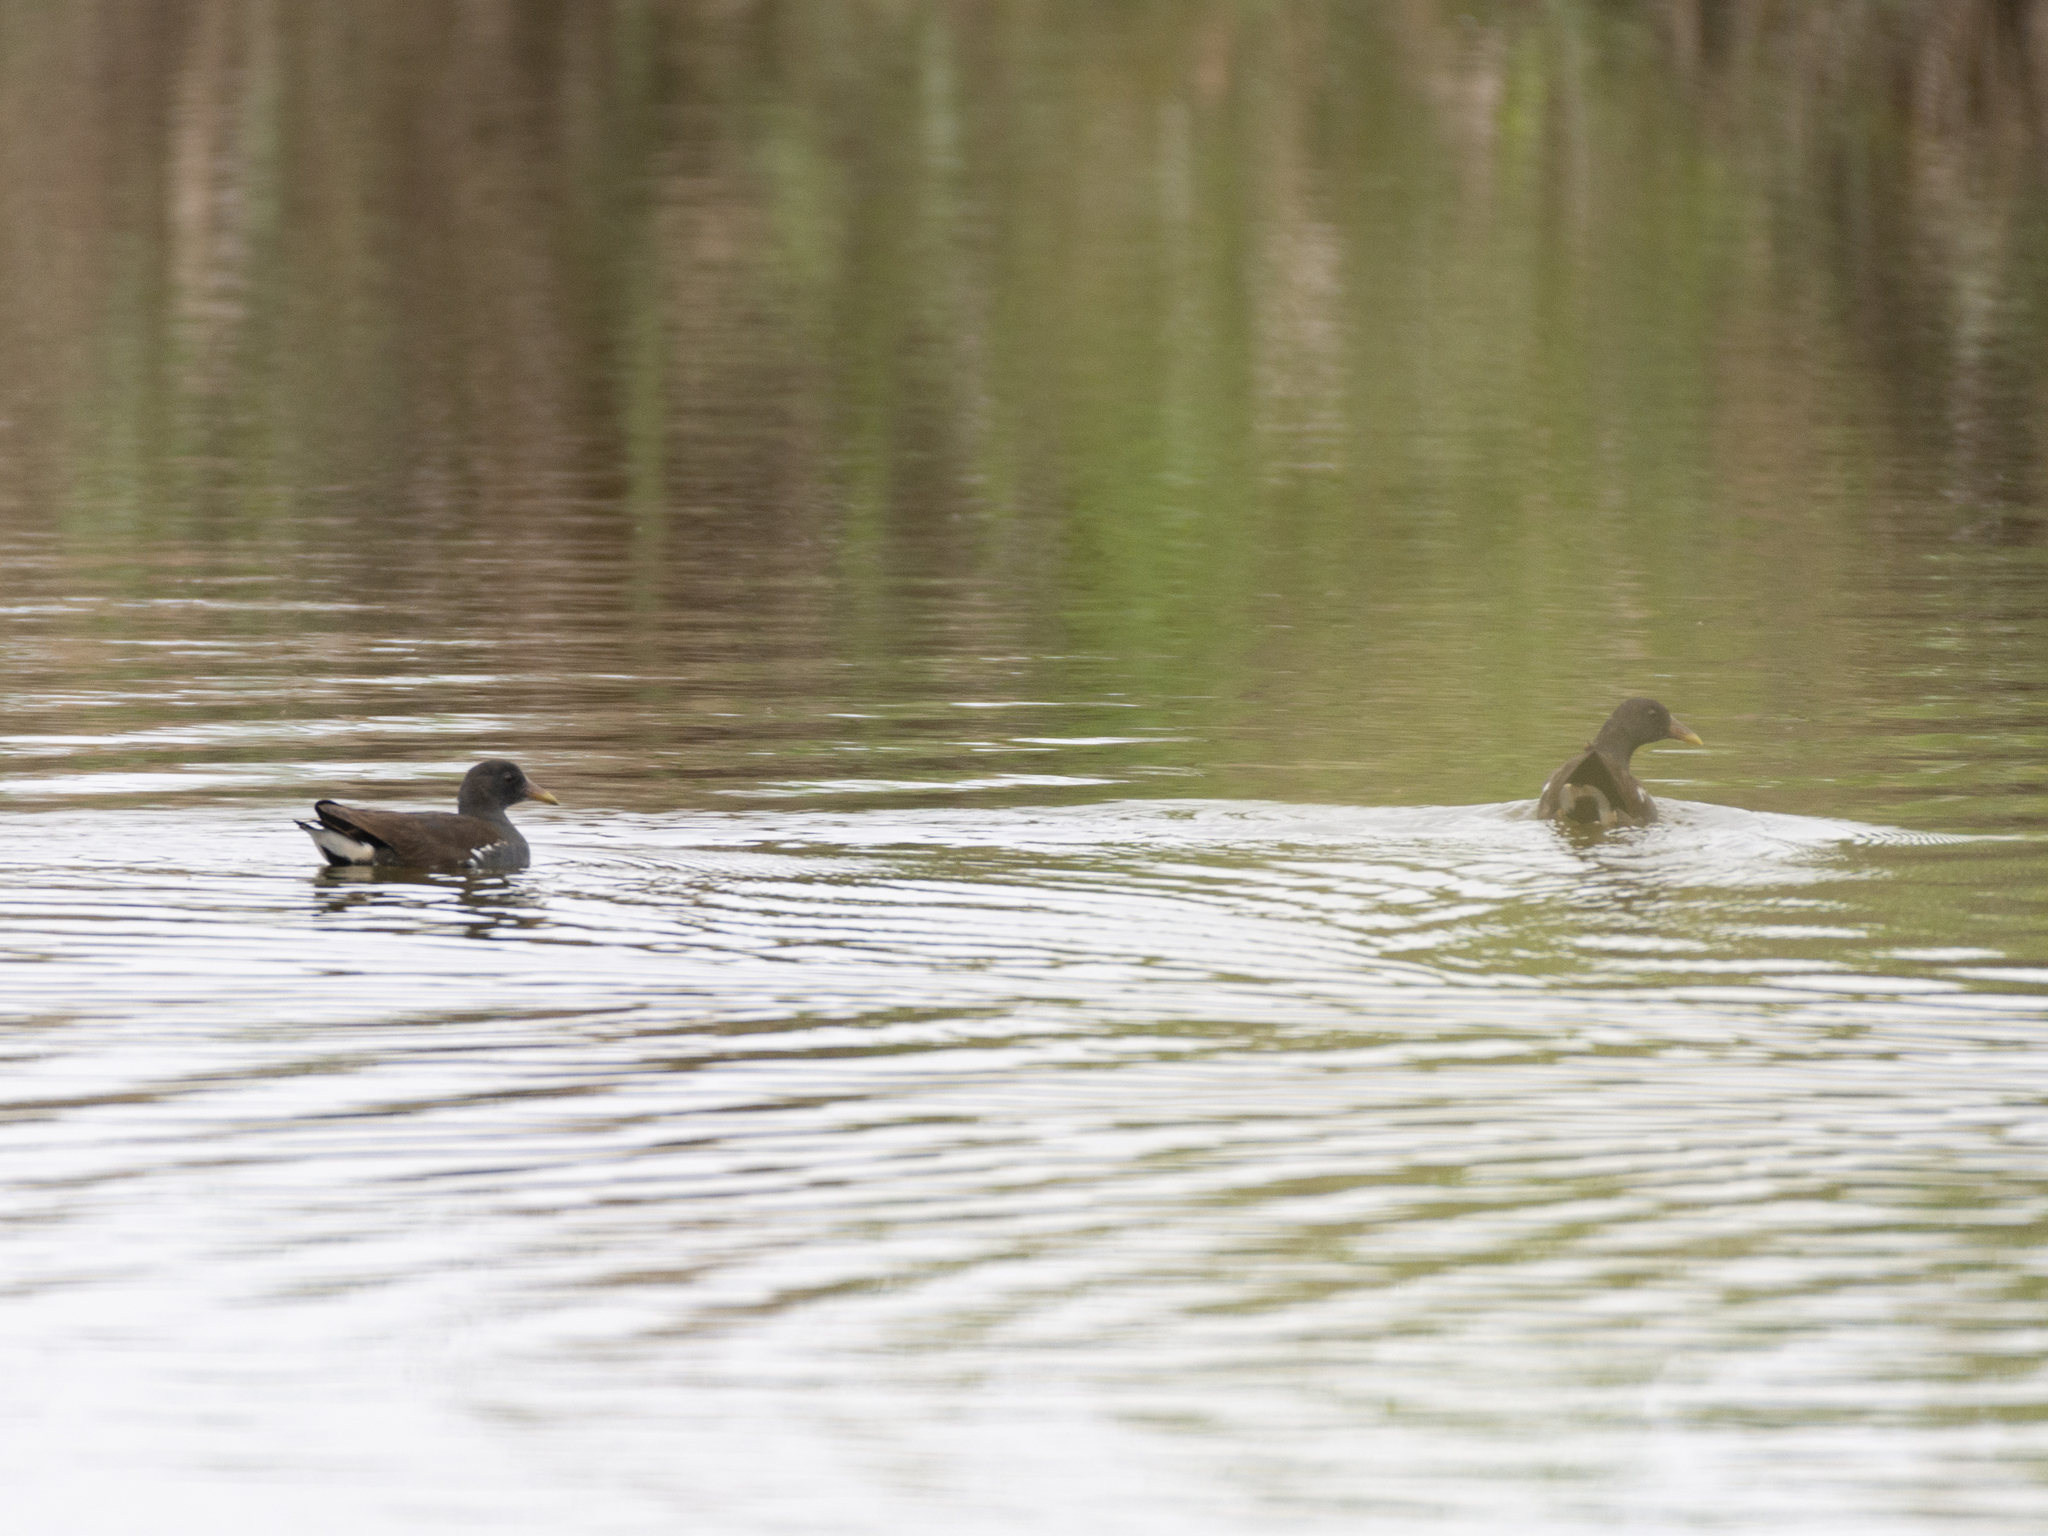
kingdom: Animalia
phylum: Chordata
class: Aves
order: Gruiformes
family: Rallidae
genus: Gallinula
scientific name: Gallinula chloropus
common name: Common moorhen
